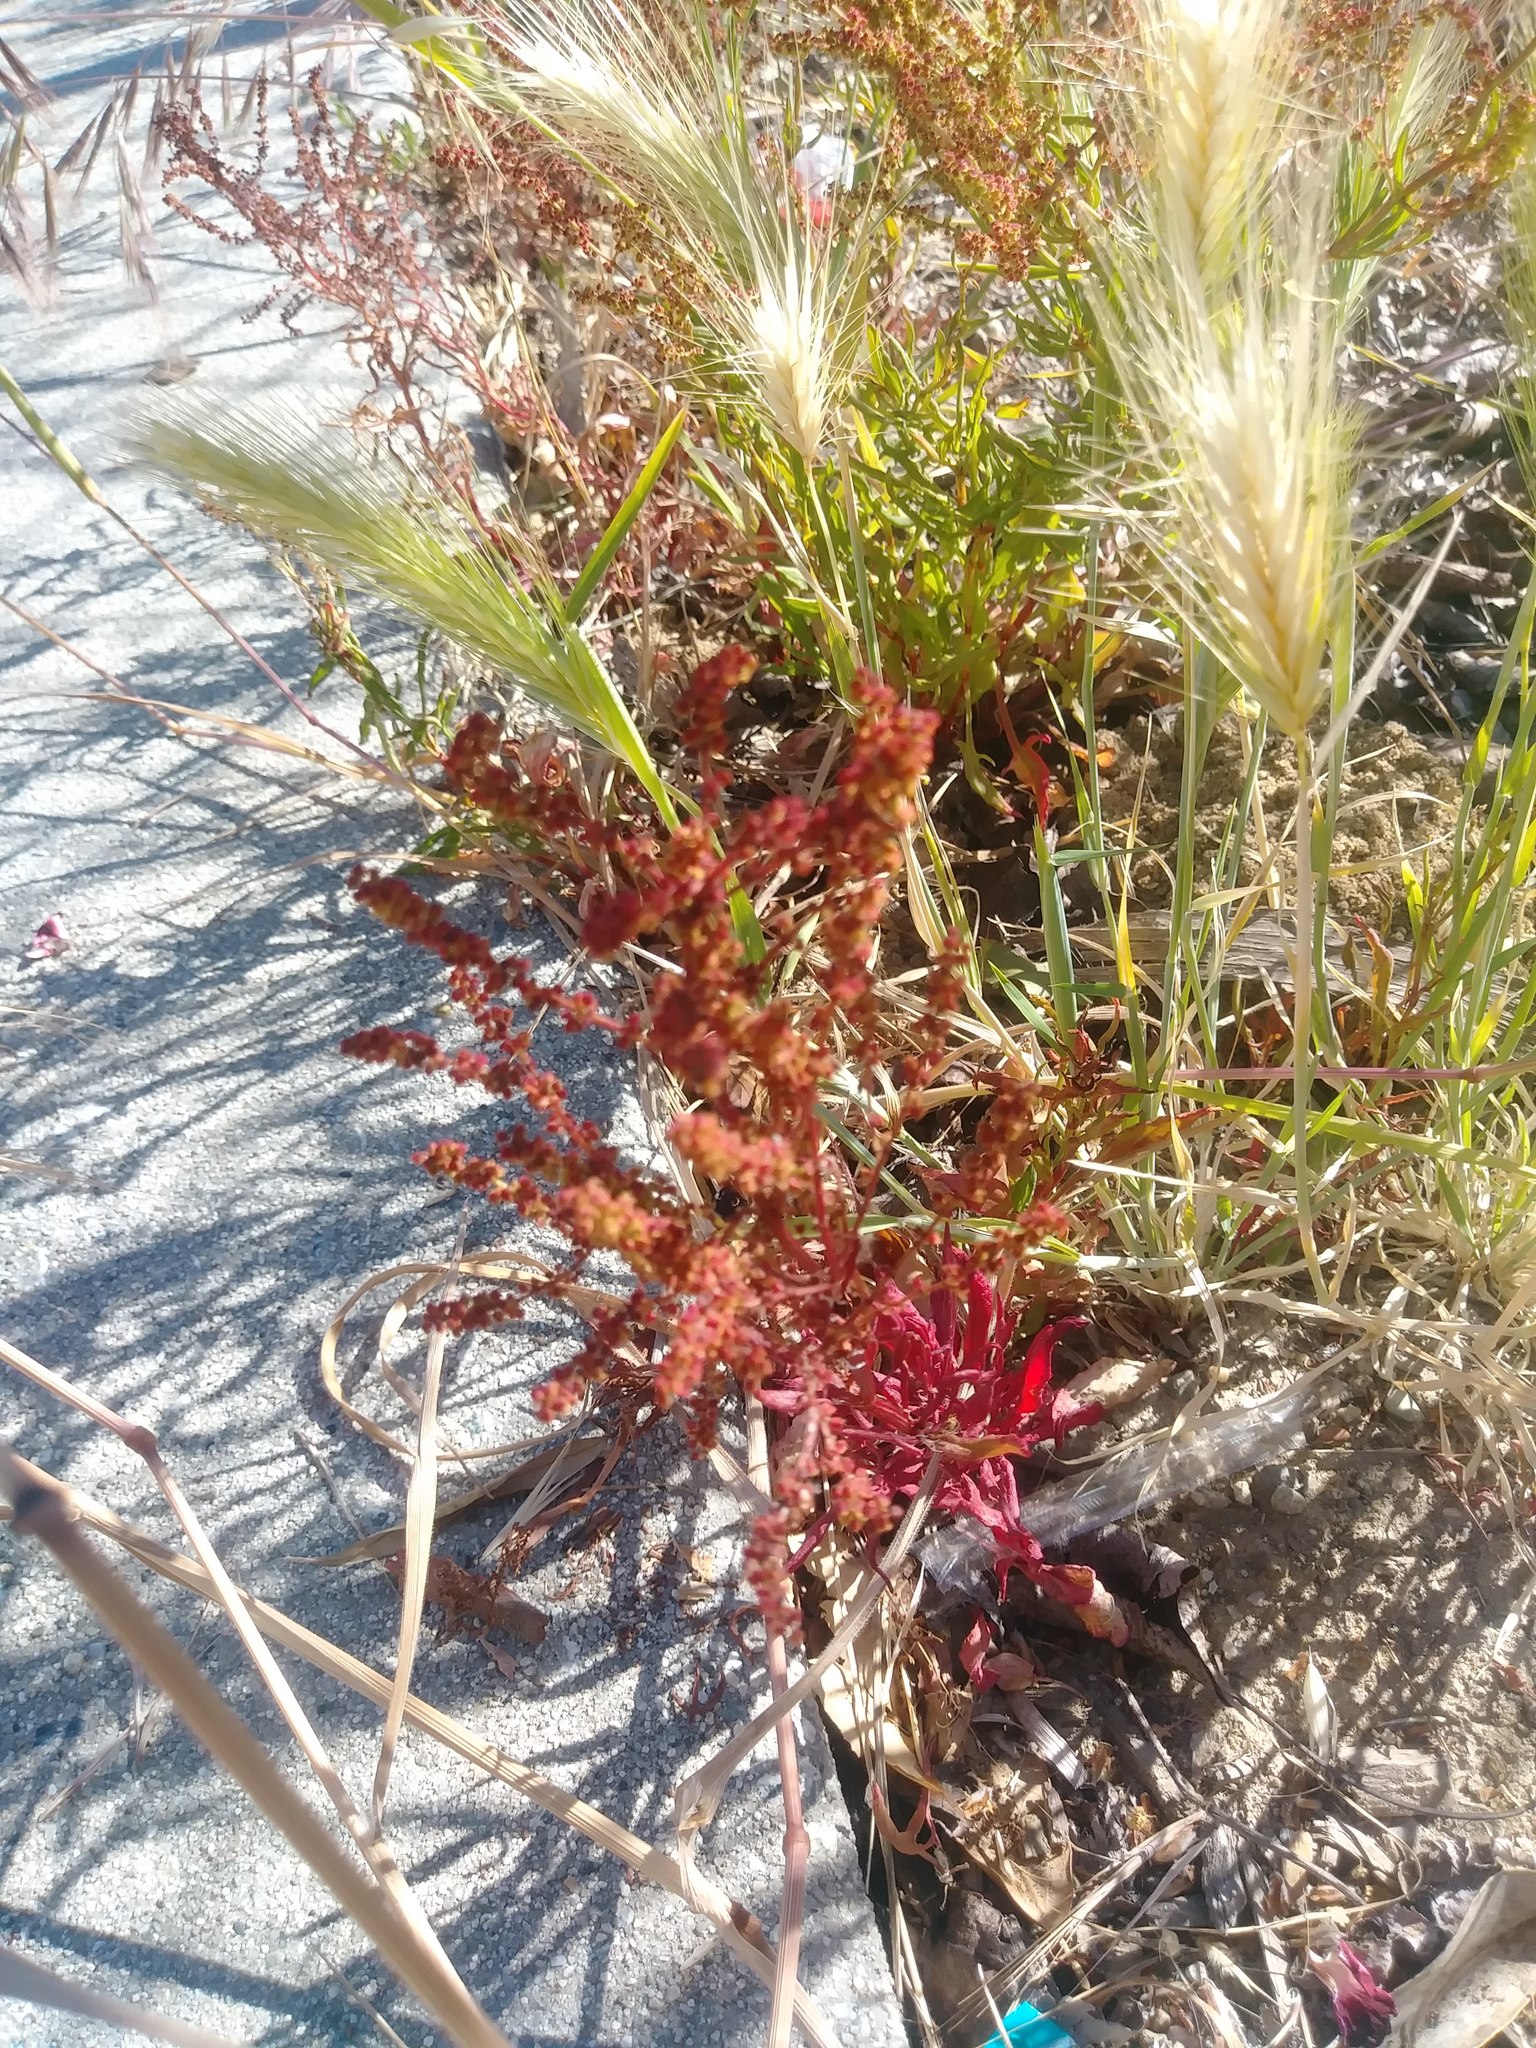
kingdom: Plantae
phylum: Tracheophyta
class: Magnoliopsida
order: Caryophyllales
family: Polygonaceae
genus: Rumex
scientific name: Rumex acetosella
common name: Common sheep sorrel
